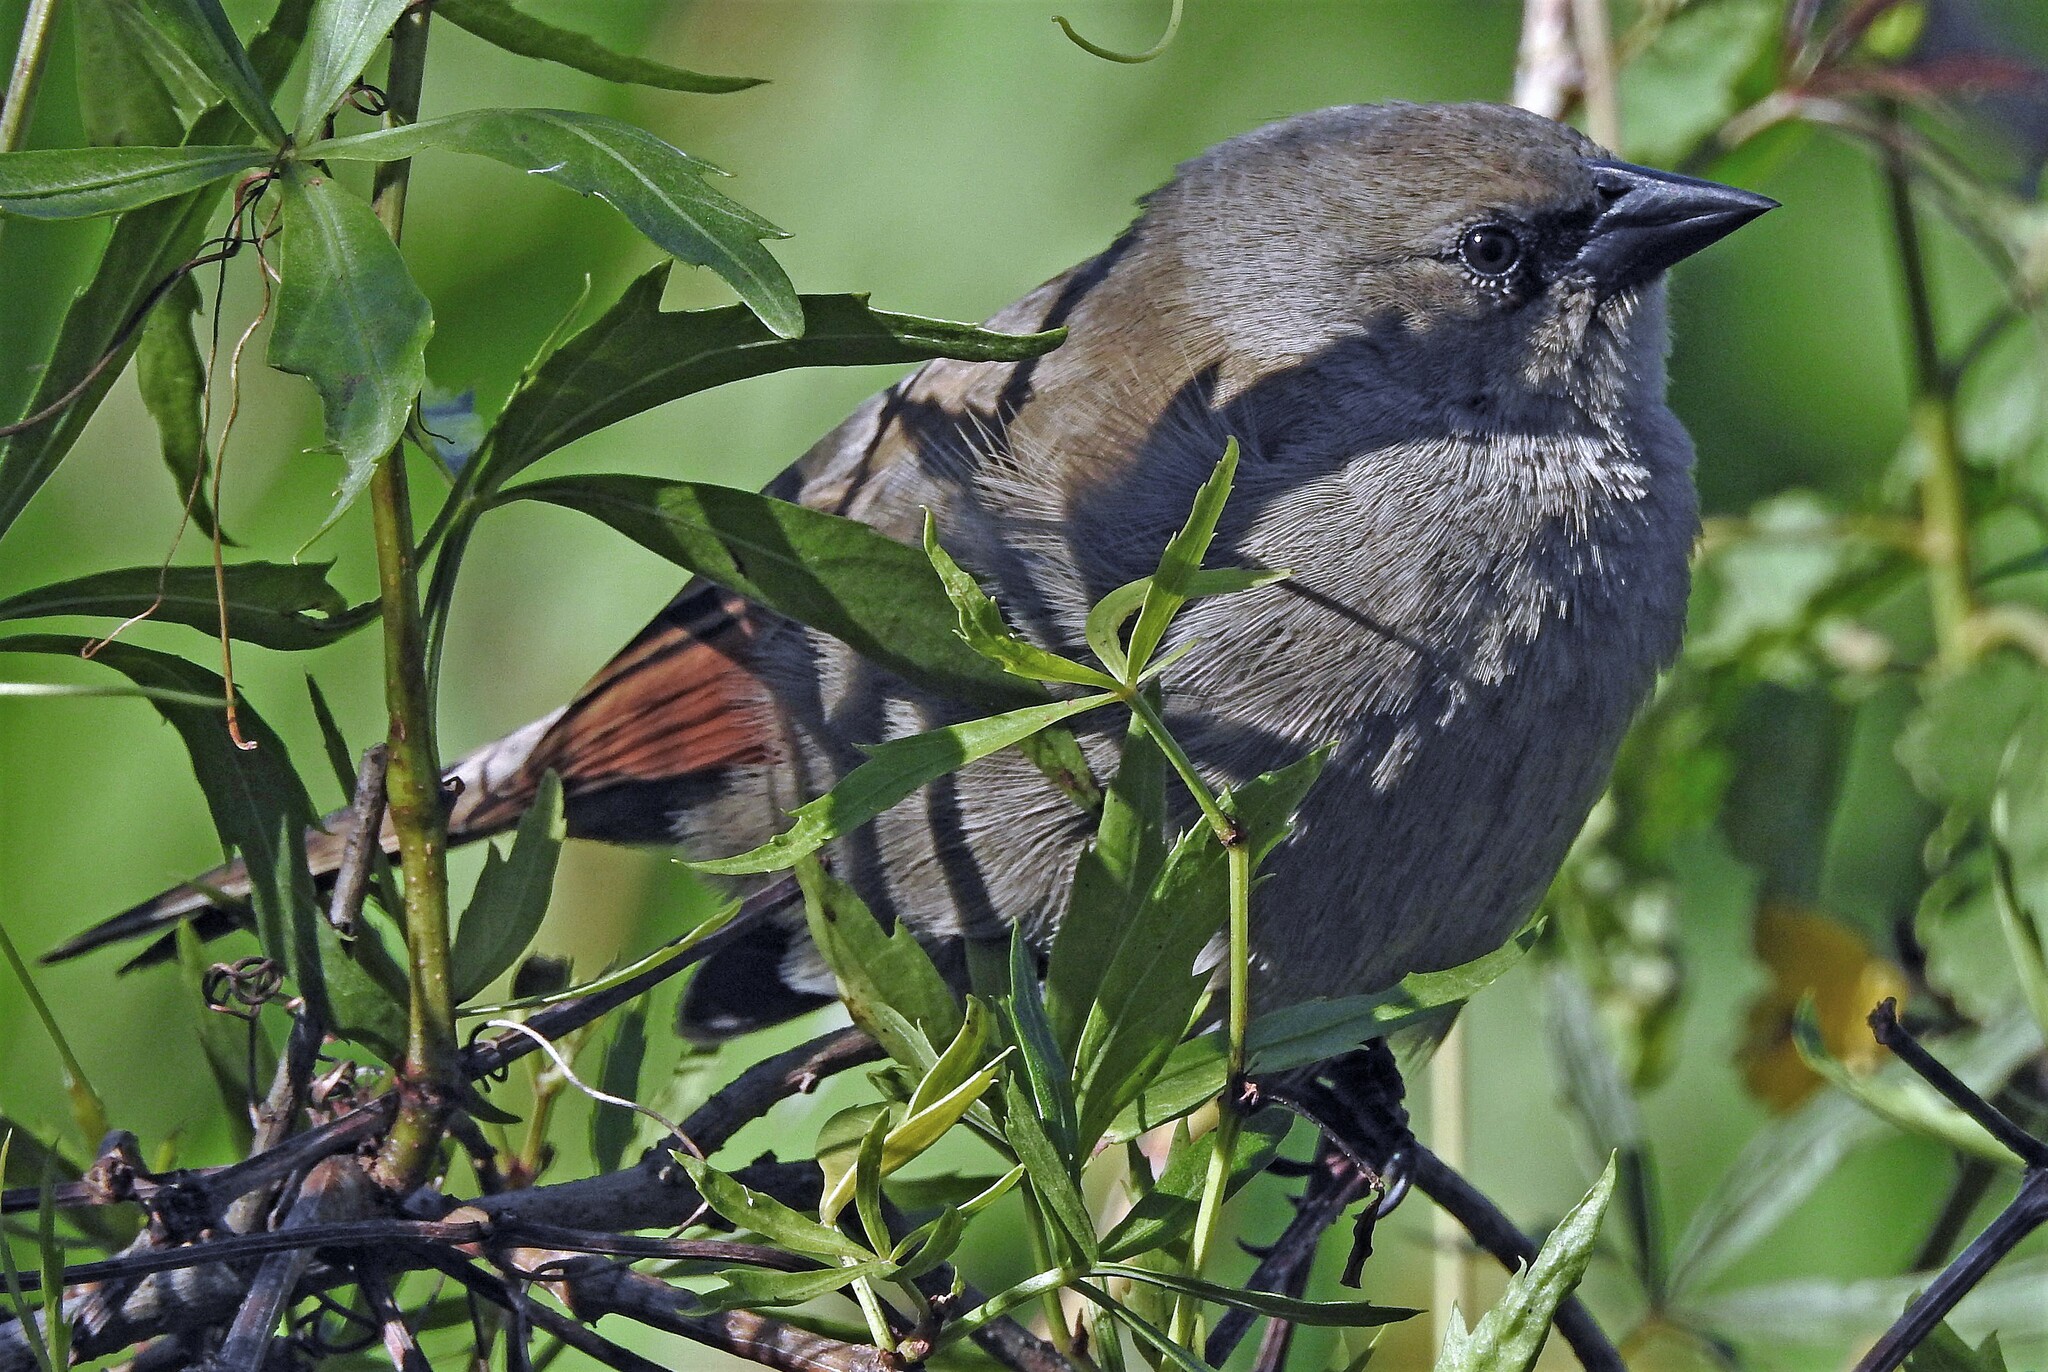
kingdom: Animalia
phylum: Chordata
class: Aves
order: Passeriformes
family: Icteridae
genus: Agelaioides
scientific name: Agelaioides badius
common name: Baywing
